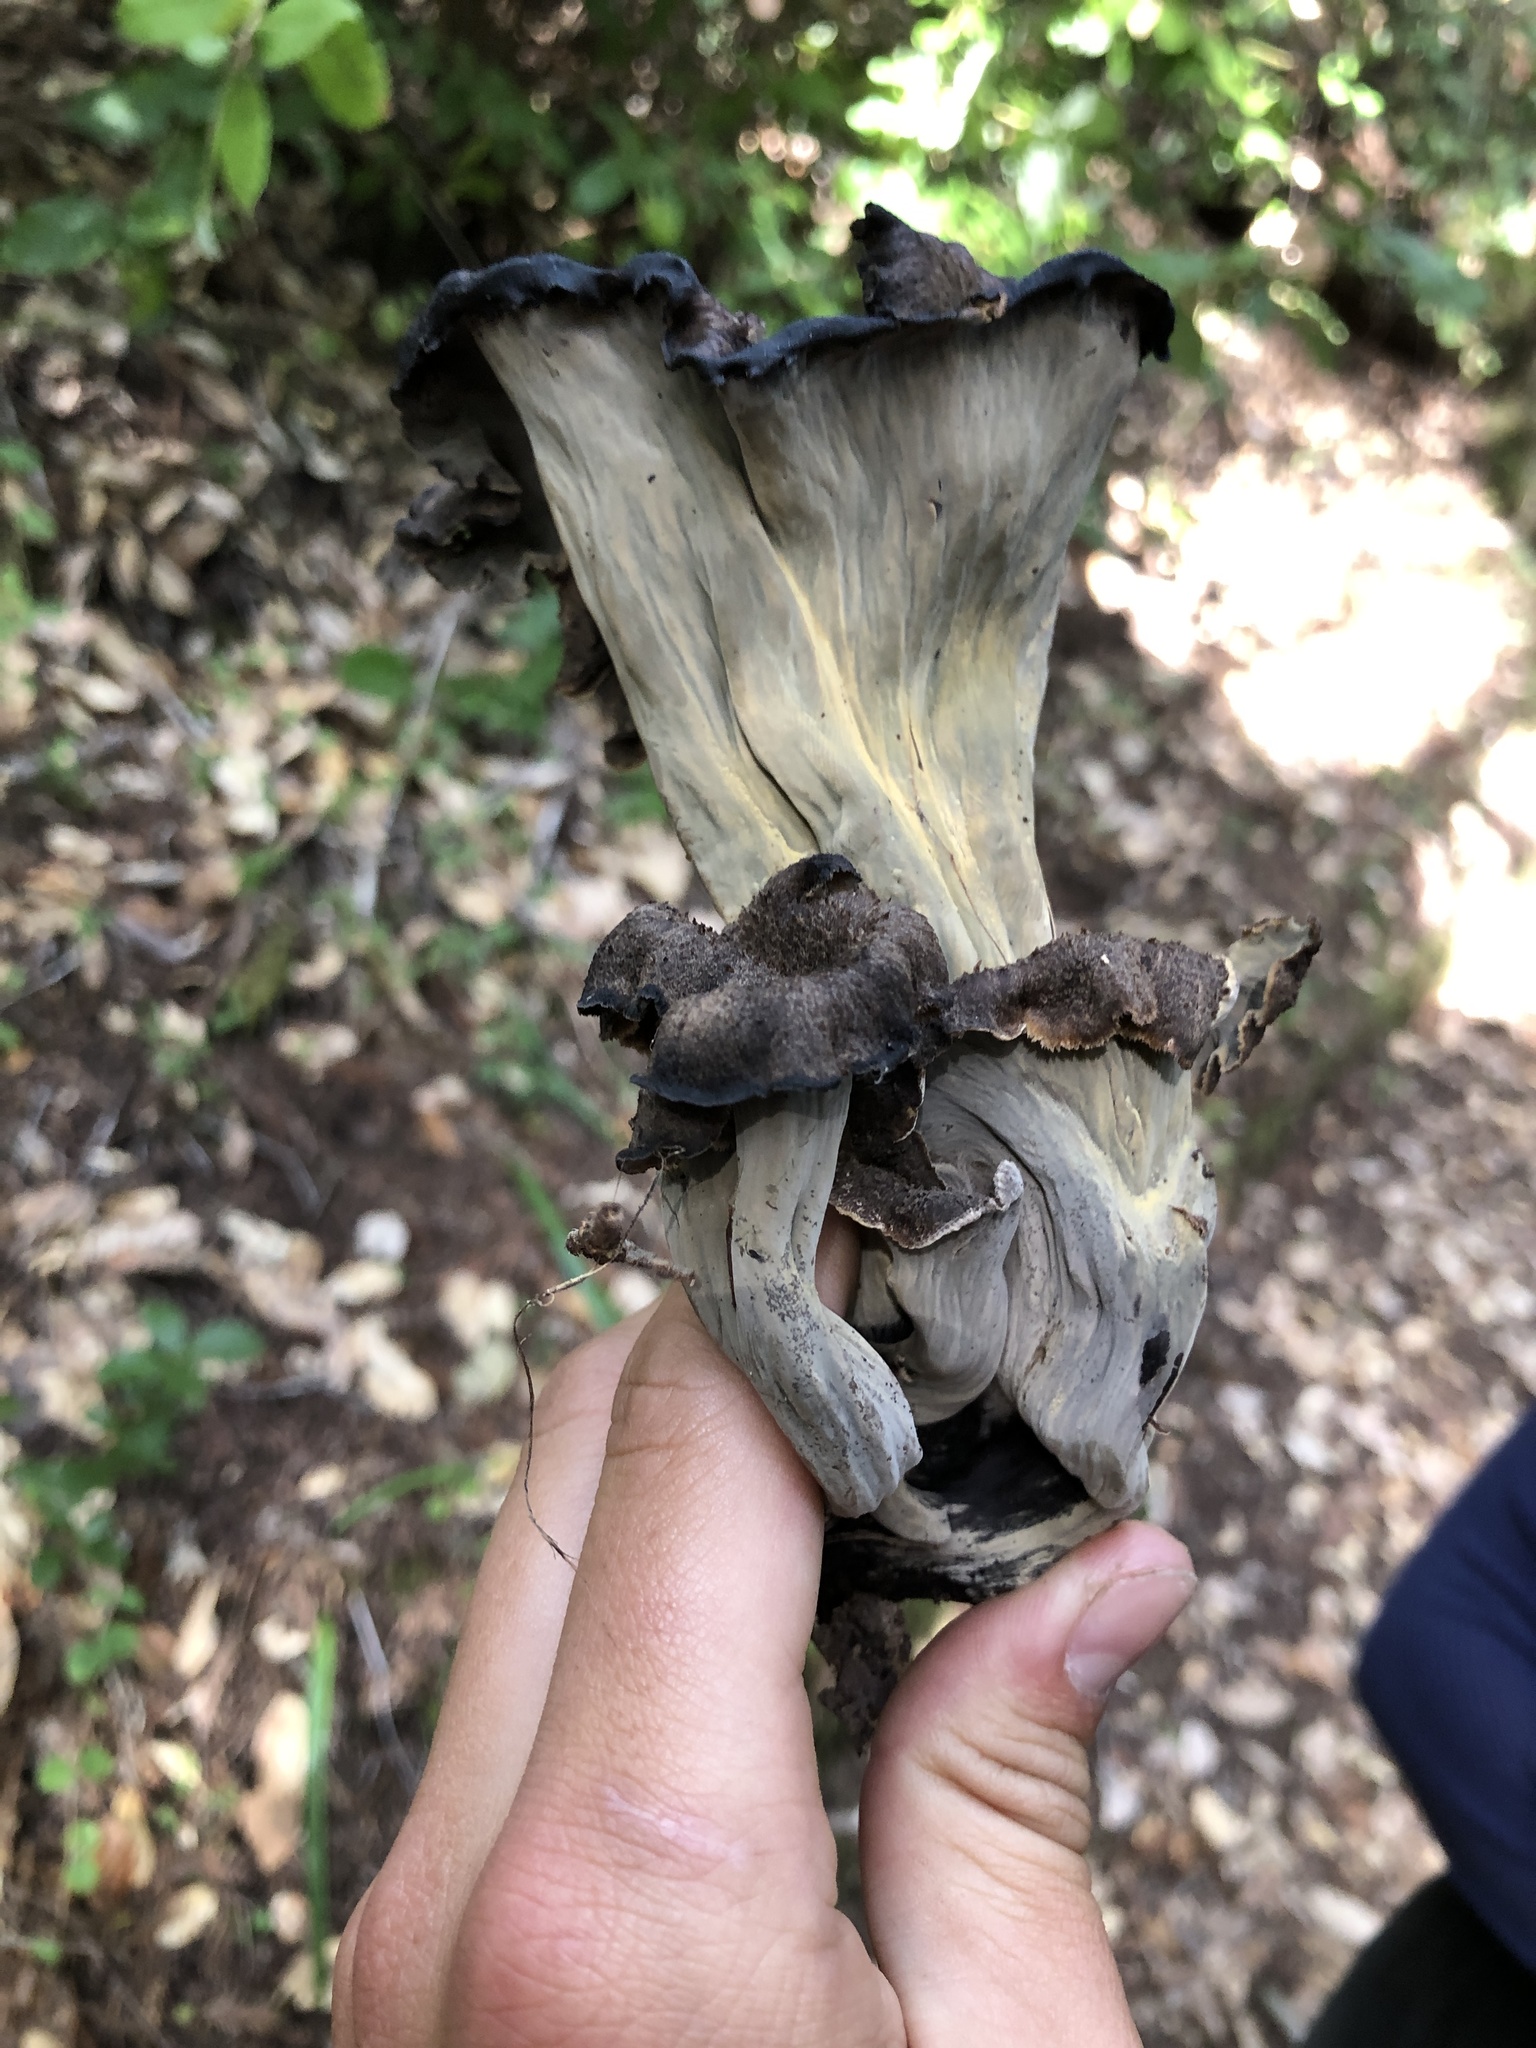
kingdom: Fungi
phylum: Basidiomycota
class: Agaricomycetes
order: Cantharellales
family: Hydnaceae
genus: Craterellus
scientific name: Craterellus calicornucopioides
